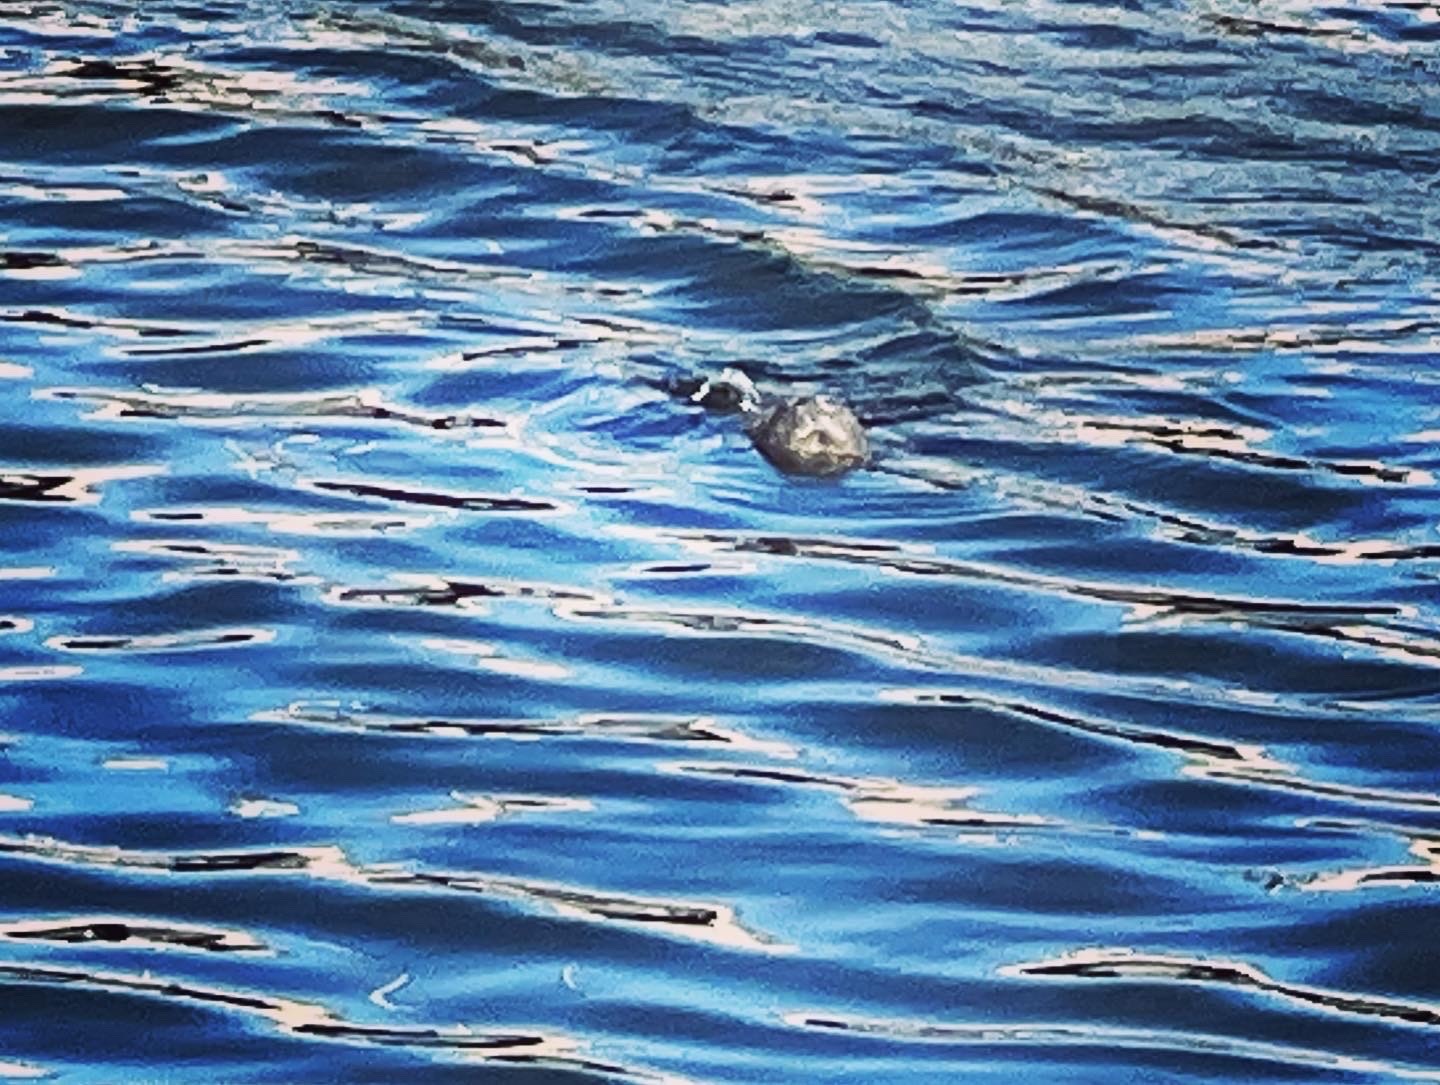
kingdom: Animalia
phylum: Chordata
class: Mammalia
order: Sirenia
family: Trichechidae
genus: Trichechus
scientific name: Trichechus manatus
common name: West indian manatee
